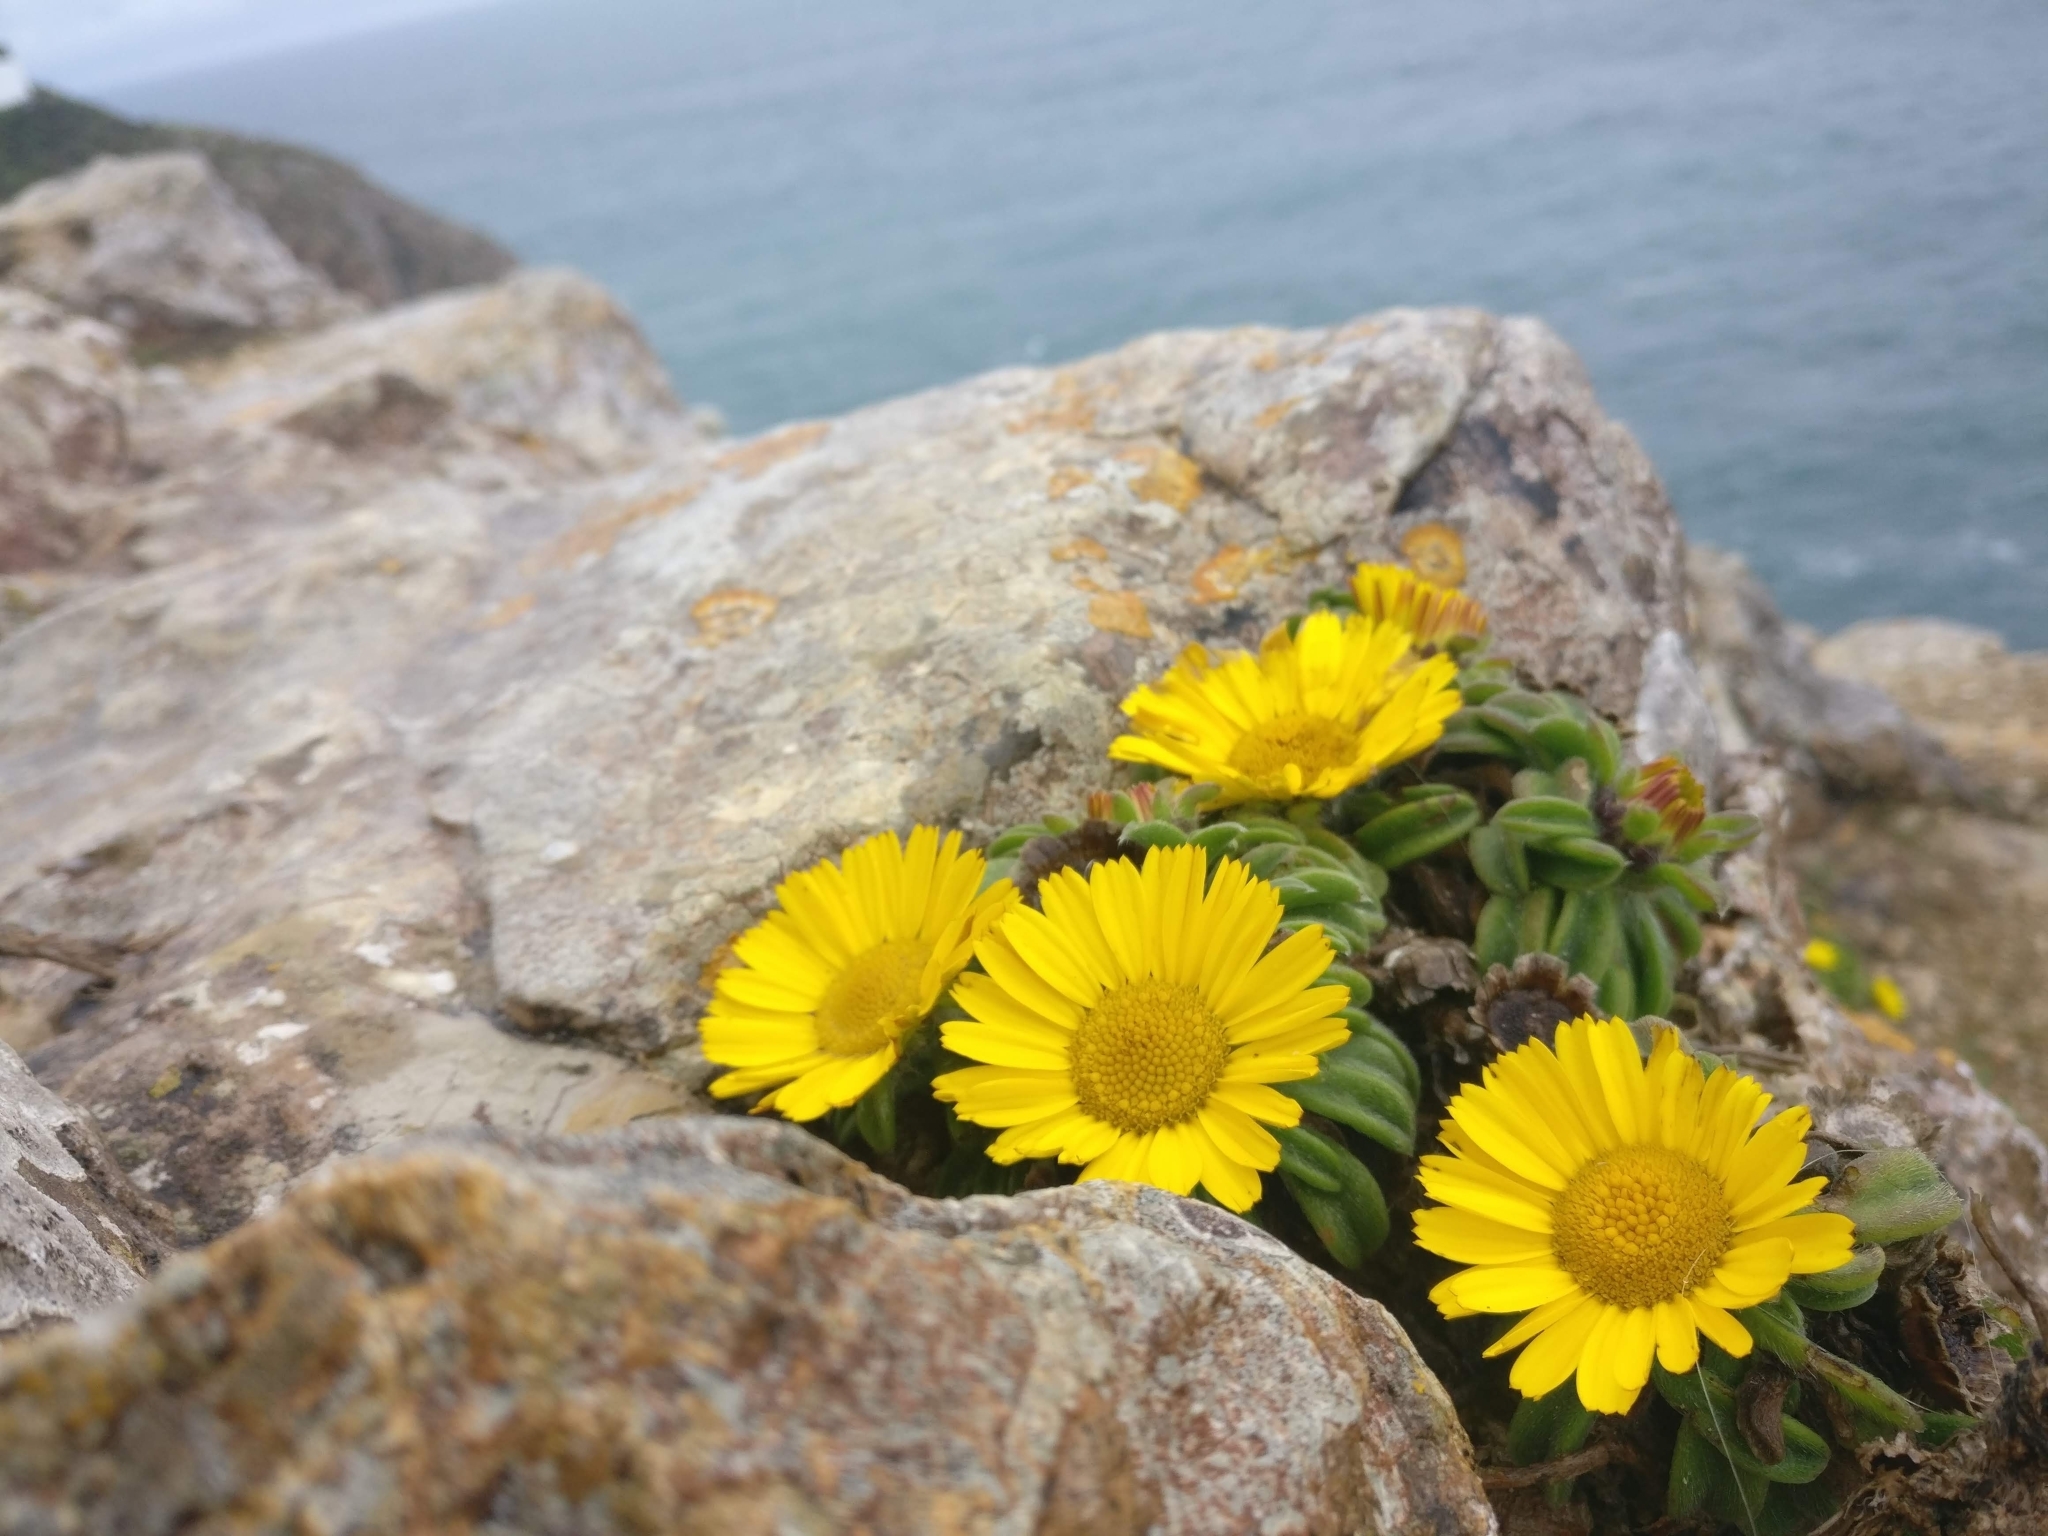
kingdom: Plantae
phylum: Tracheophyta
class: Magnoliopsida
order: Asterales
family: Asteraceae
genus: Pallenis
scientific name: Pallenis maritima
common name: Golden coin daisy
